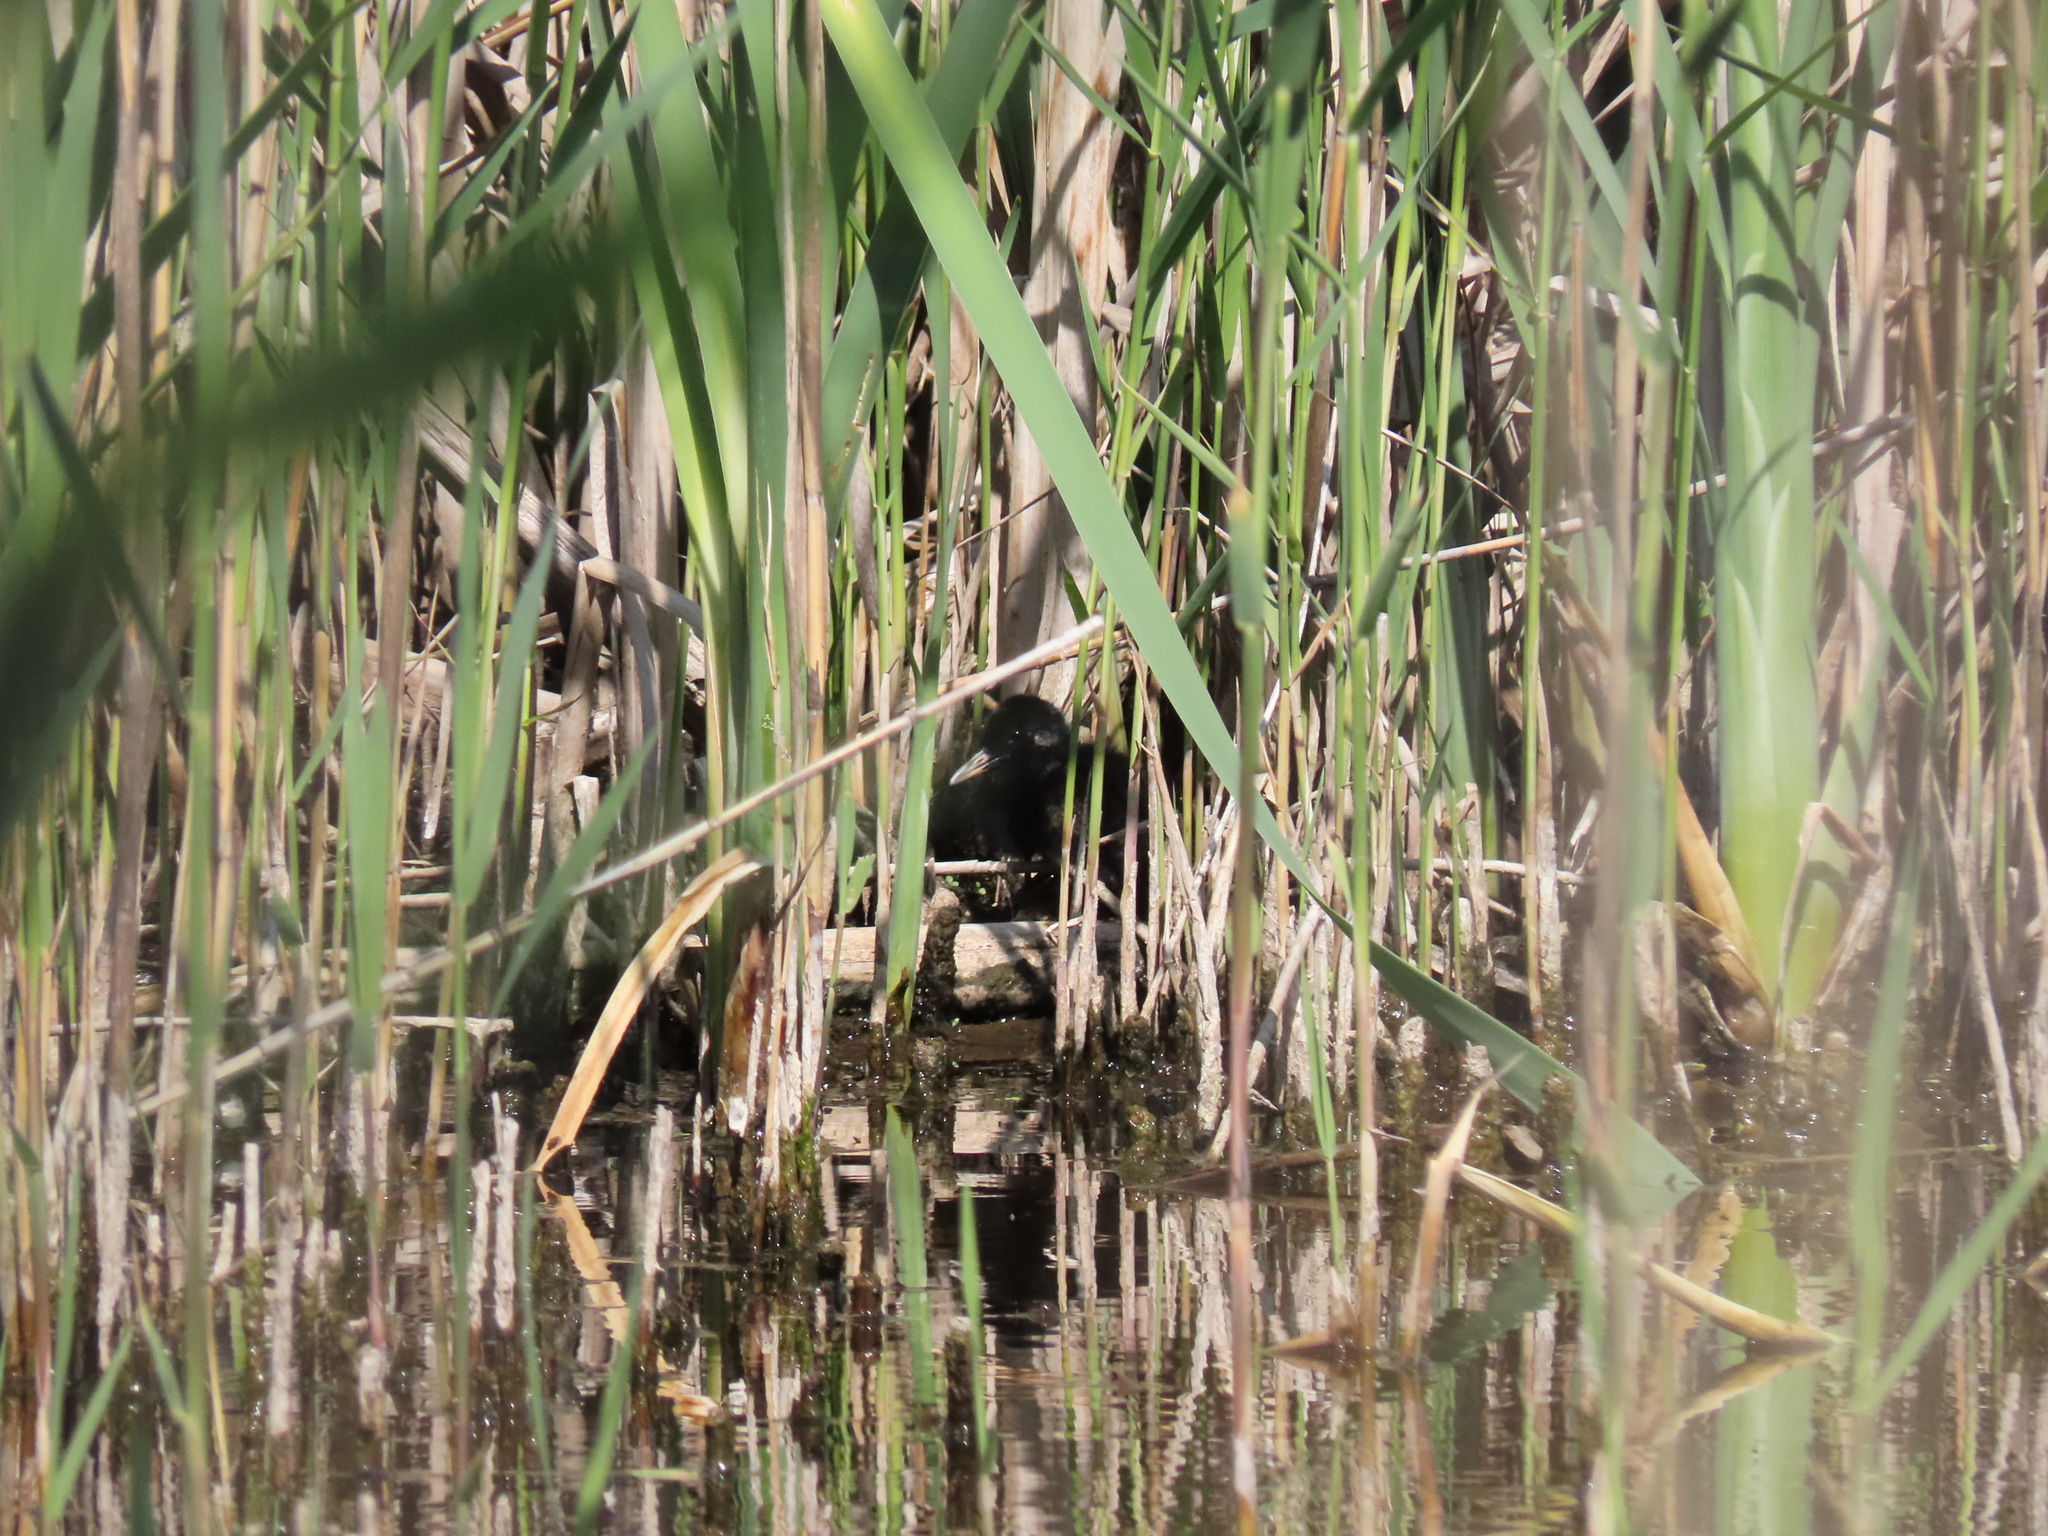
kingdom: Animalia
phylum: Chordata
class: Aves
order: Gruiformes
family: Rallidae
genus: Rallus
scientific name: Rallus aquaticus
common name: Water rail
